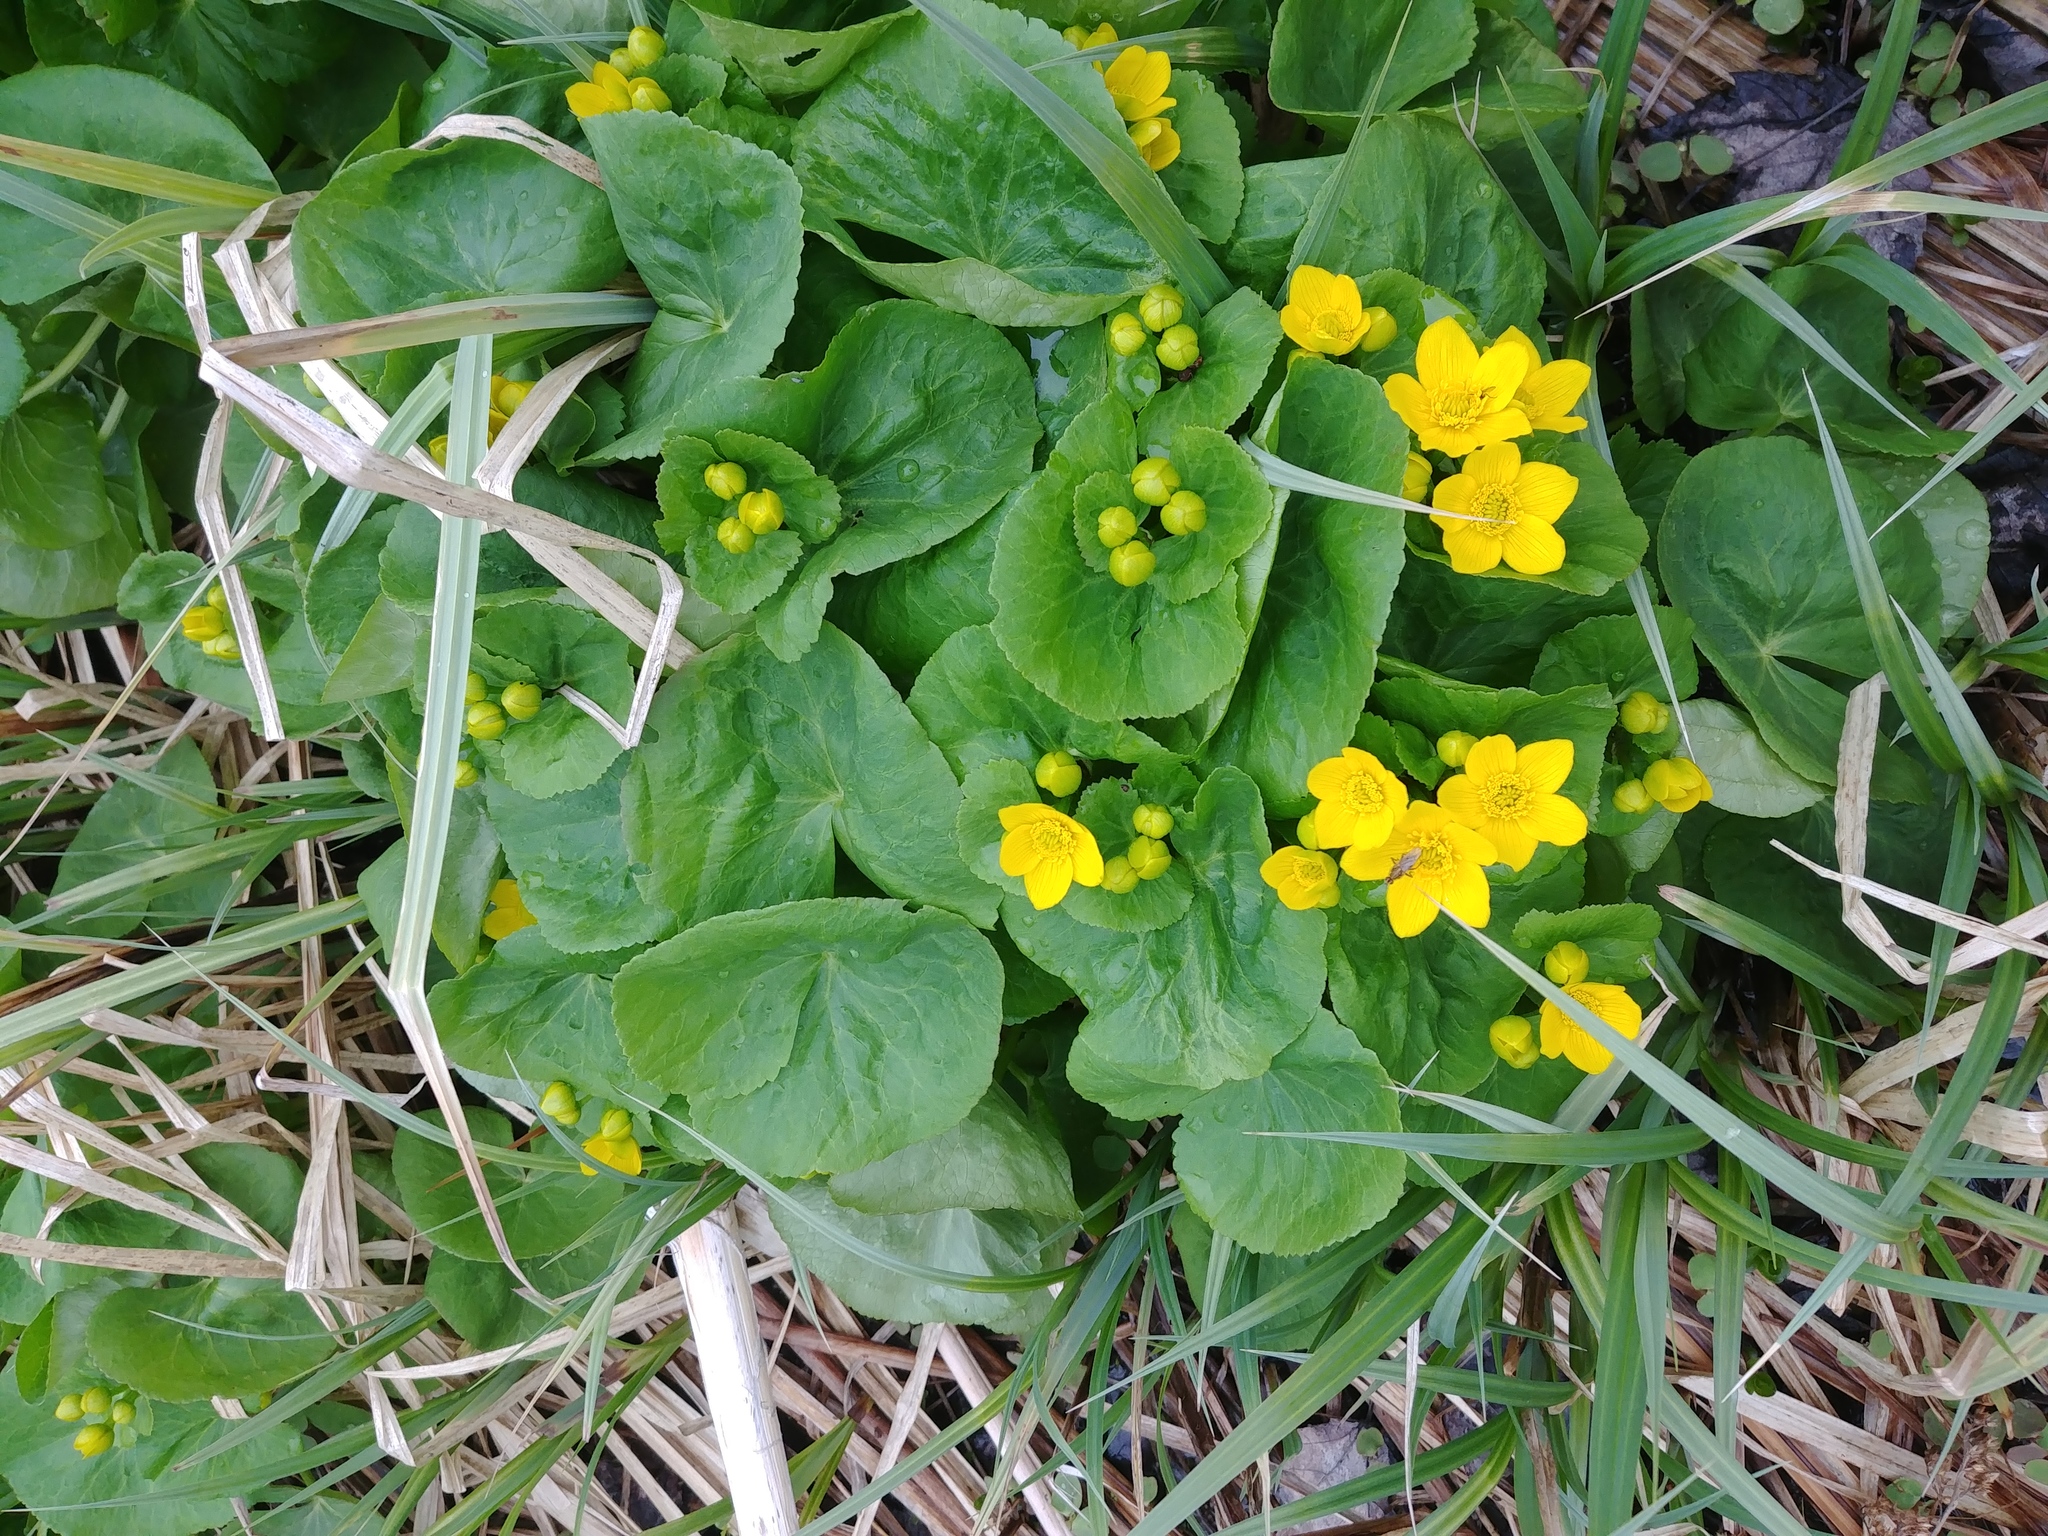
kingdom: Plantae
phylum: Tracheophyta
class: Magnoliopsida
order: Ranunculales
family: Ranunculaceae
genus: Caltha
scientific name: Caltha palustris
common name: Marsh marigold
